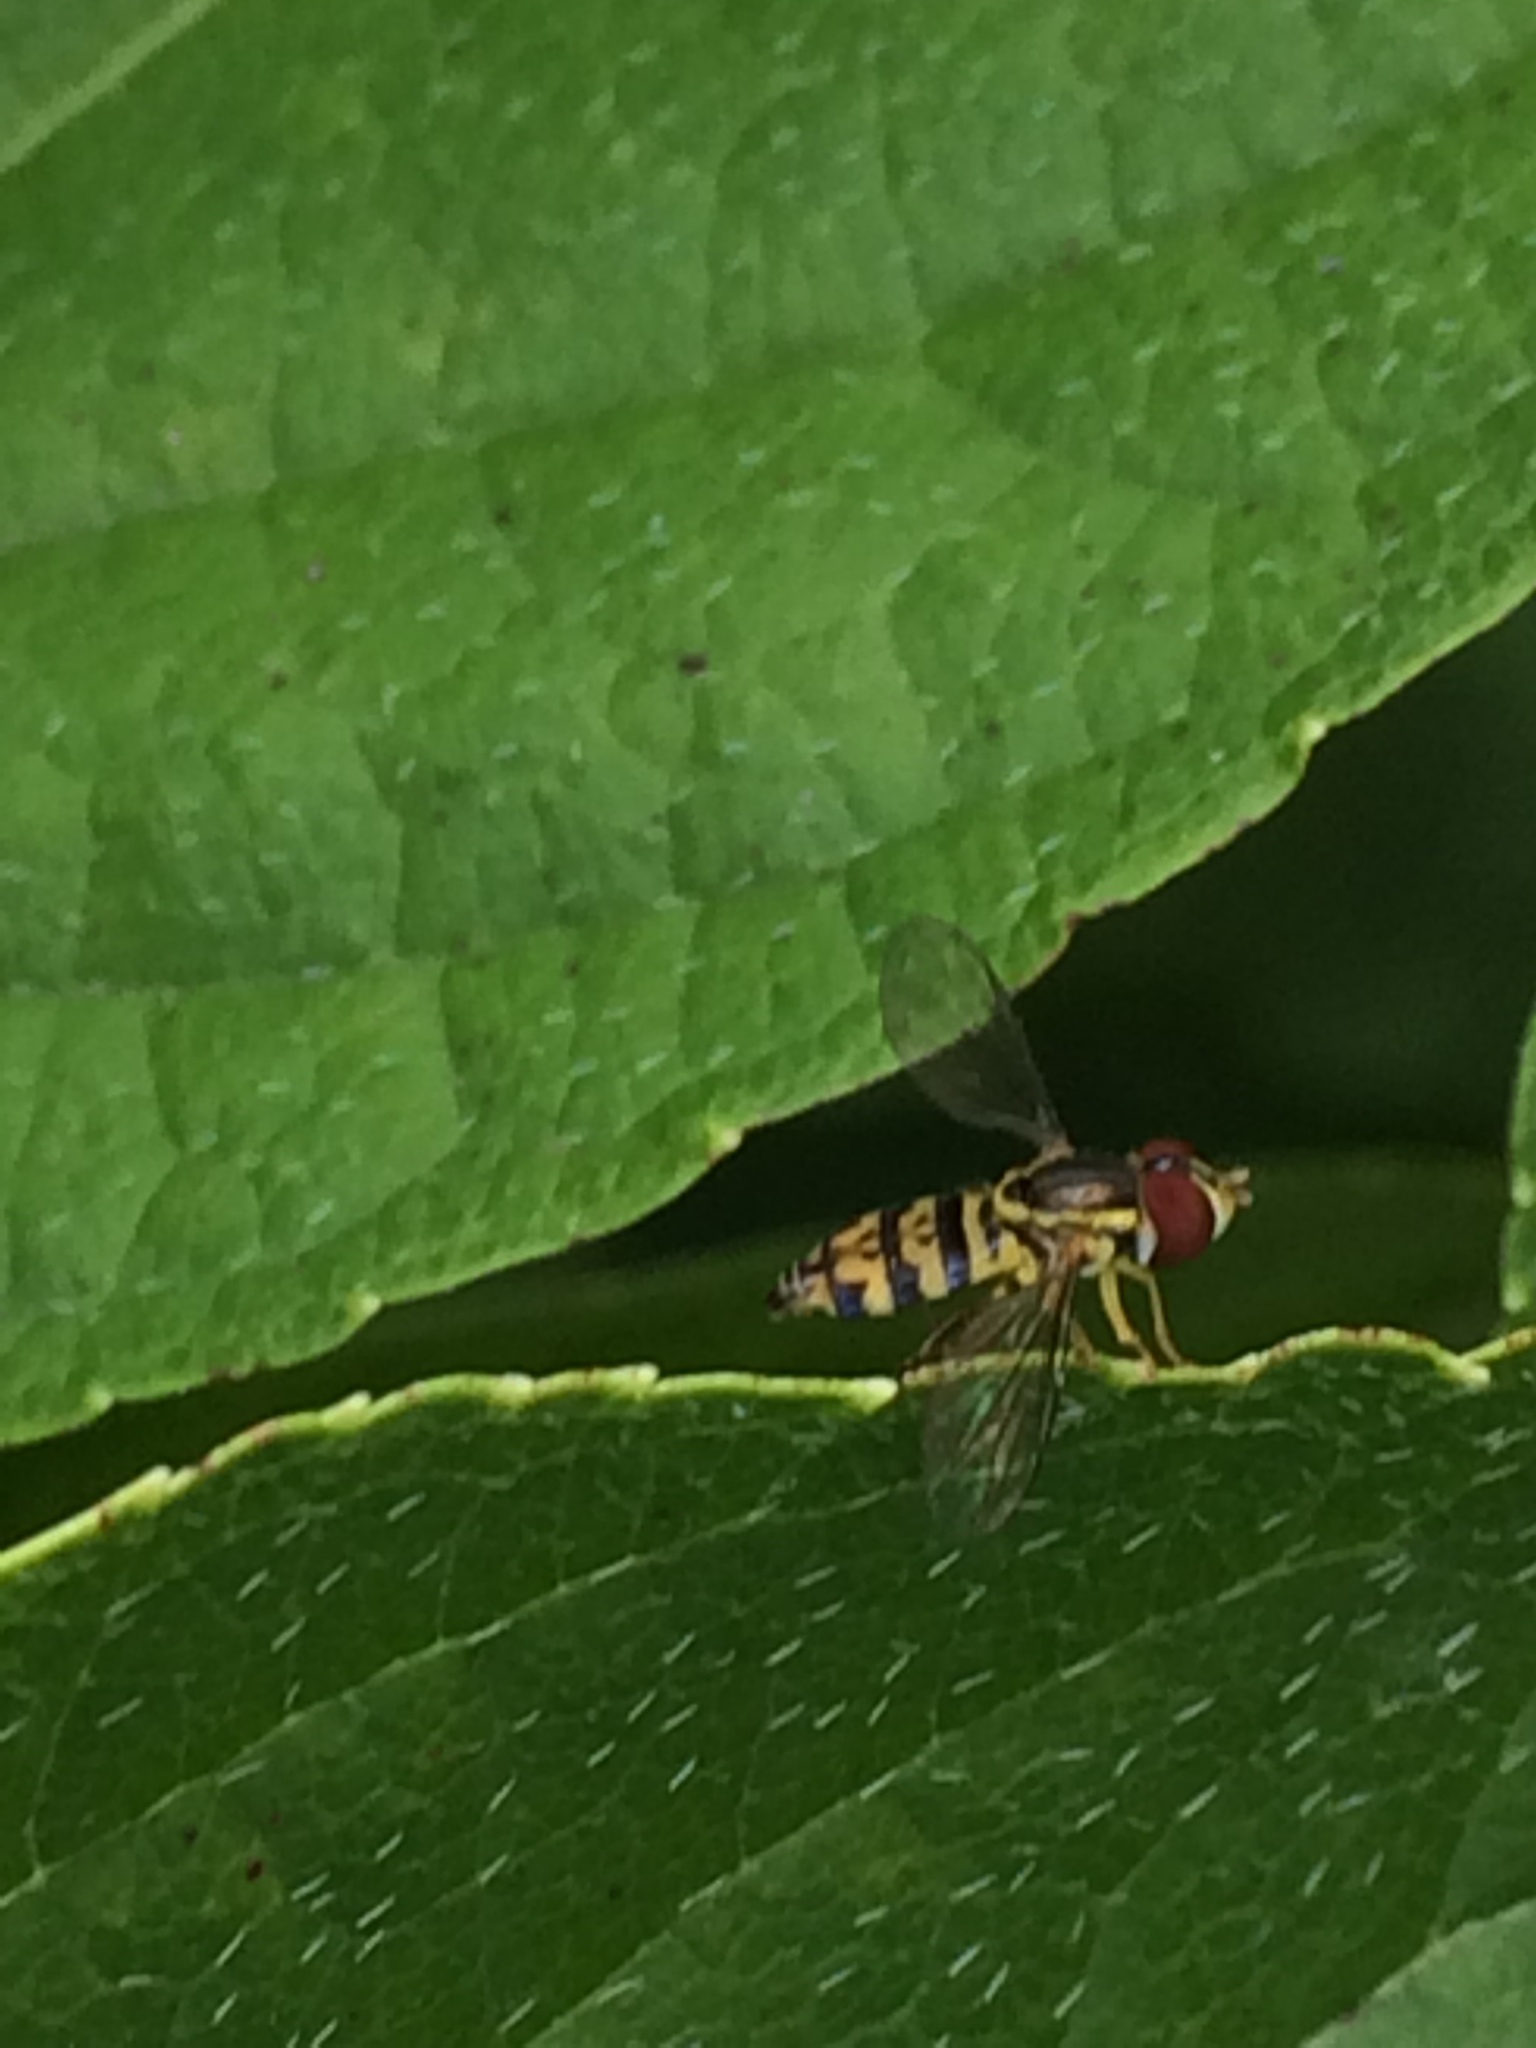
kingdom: Animalia
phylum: Arthropoda
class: Insecta
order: Diptera
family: Syrphidae
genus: Toxomerus
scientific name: Toxomerus geminatus
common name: Eastern calligrapher
